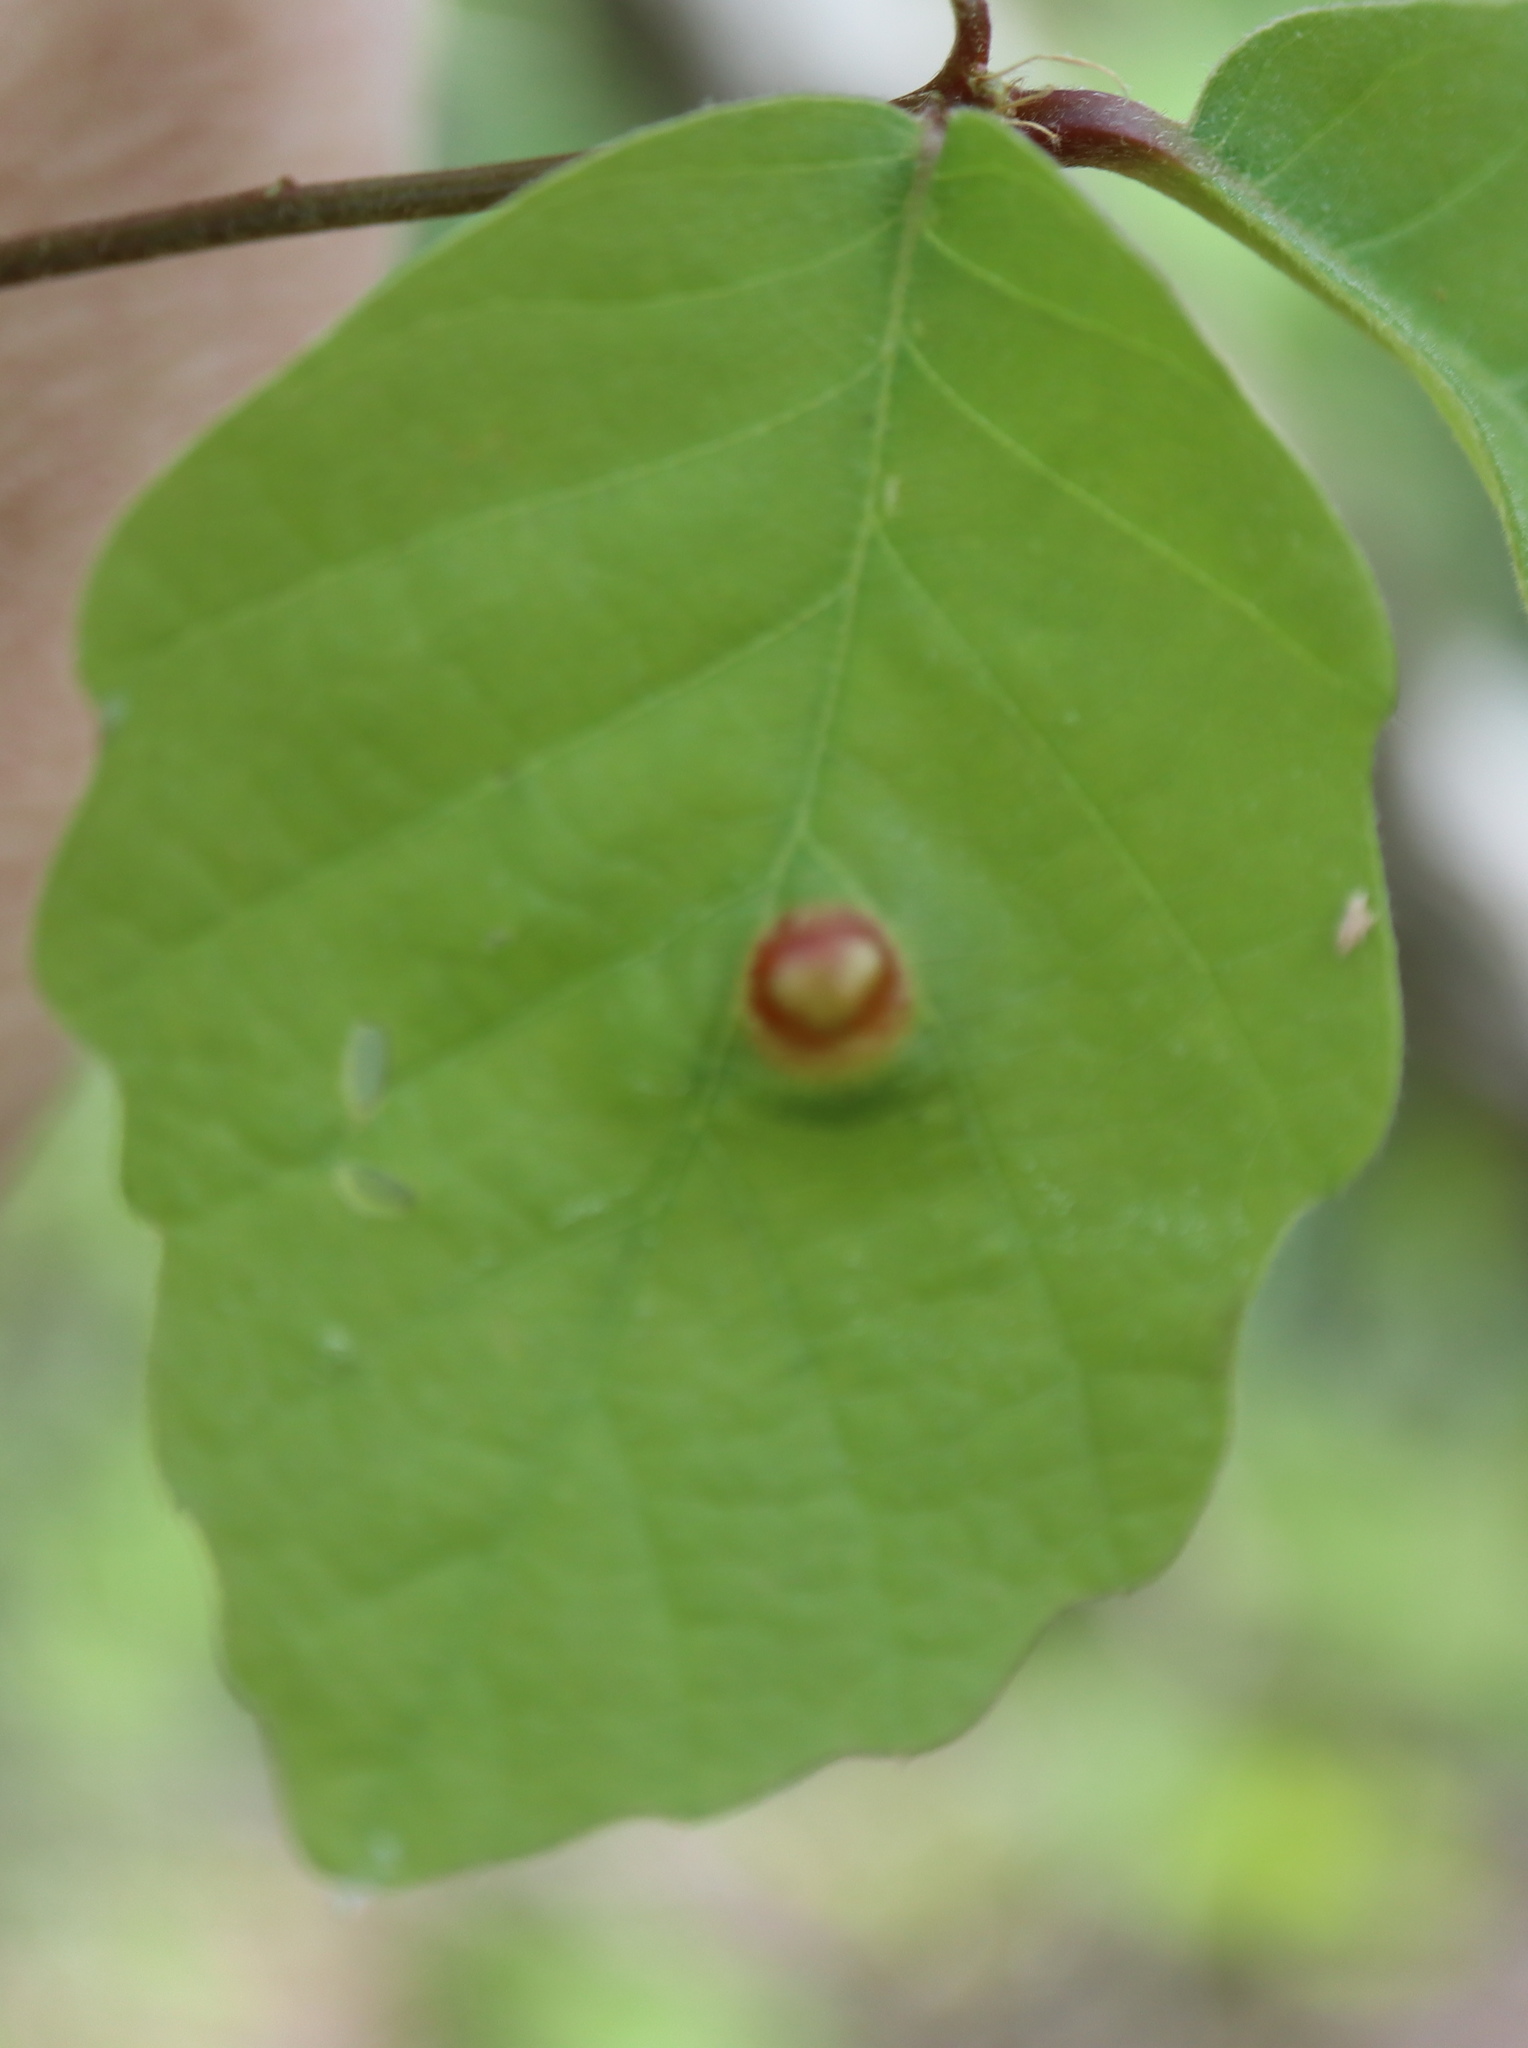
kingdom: Animalia
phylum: Arthropoda
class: Insecta
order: Hymenoptera
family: Cynipidae
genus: Neuroterus
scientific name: Neuroterus quercusirregularis
